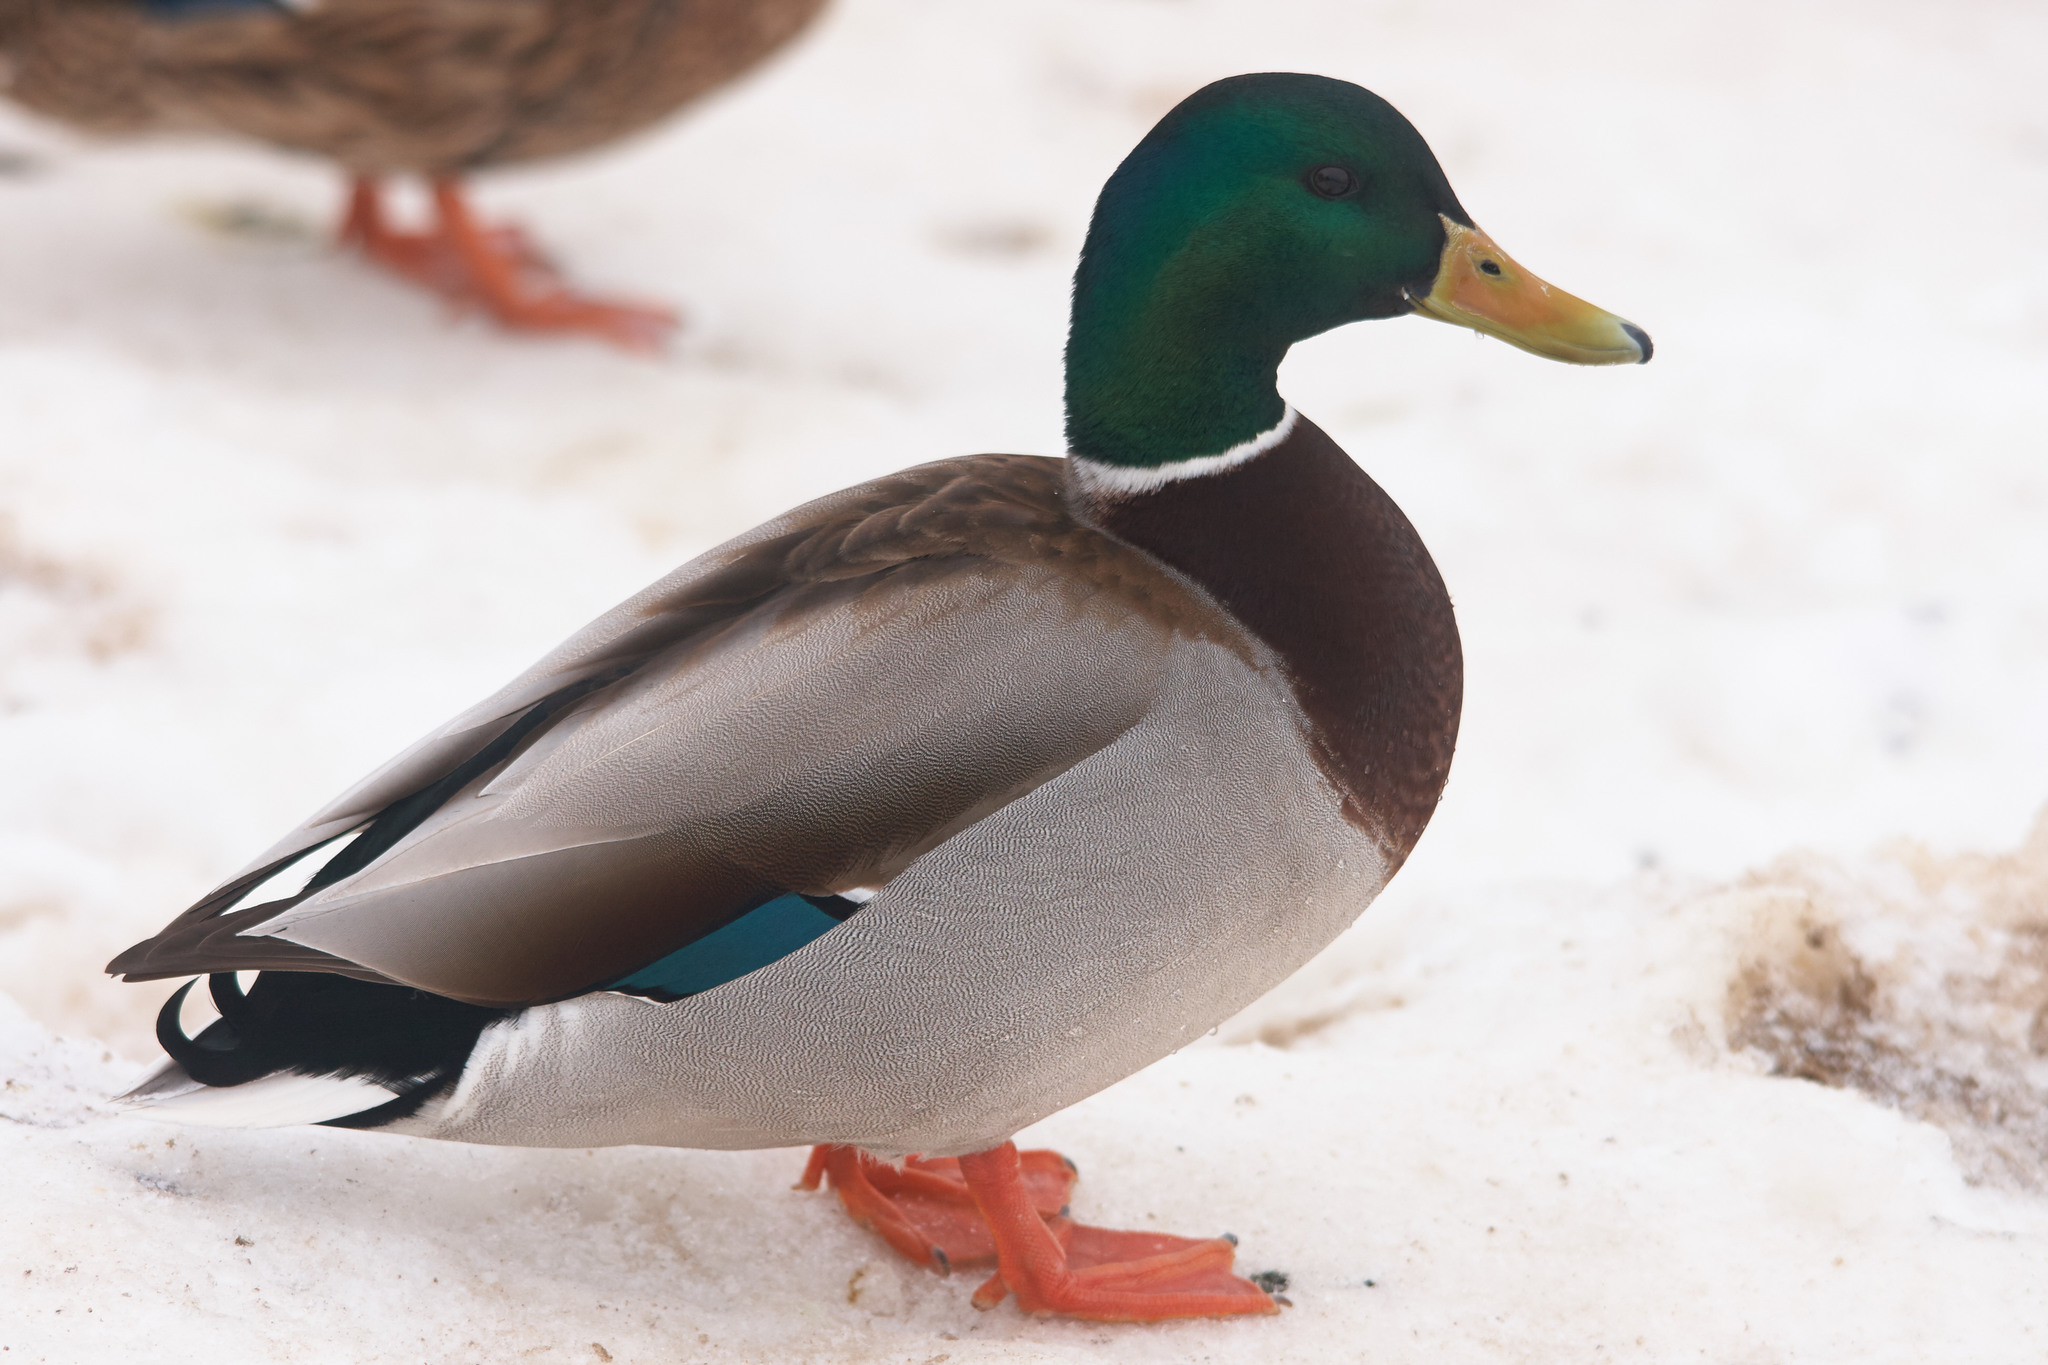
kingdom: Animalia
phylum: Chordata
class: Aves
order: Anseriformes
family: Anatidae
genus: Anas
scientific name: Anas platyrhynchos
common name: Mallard
